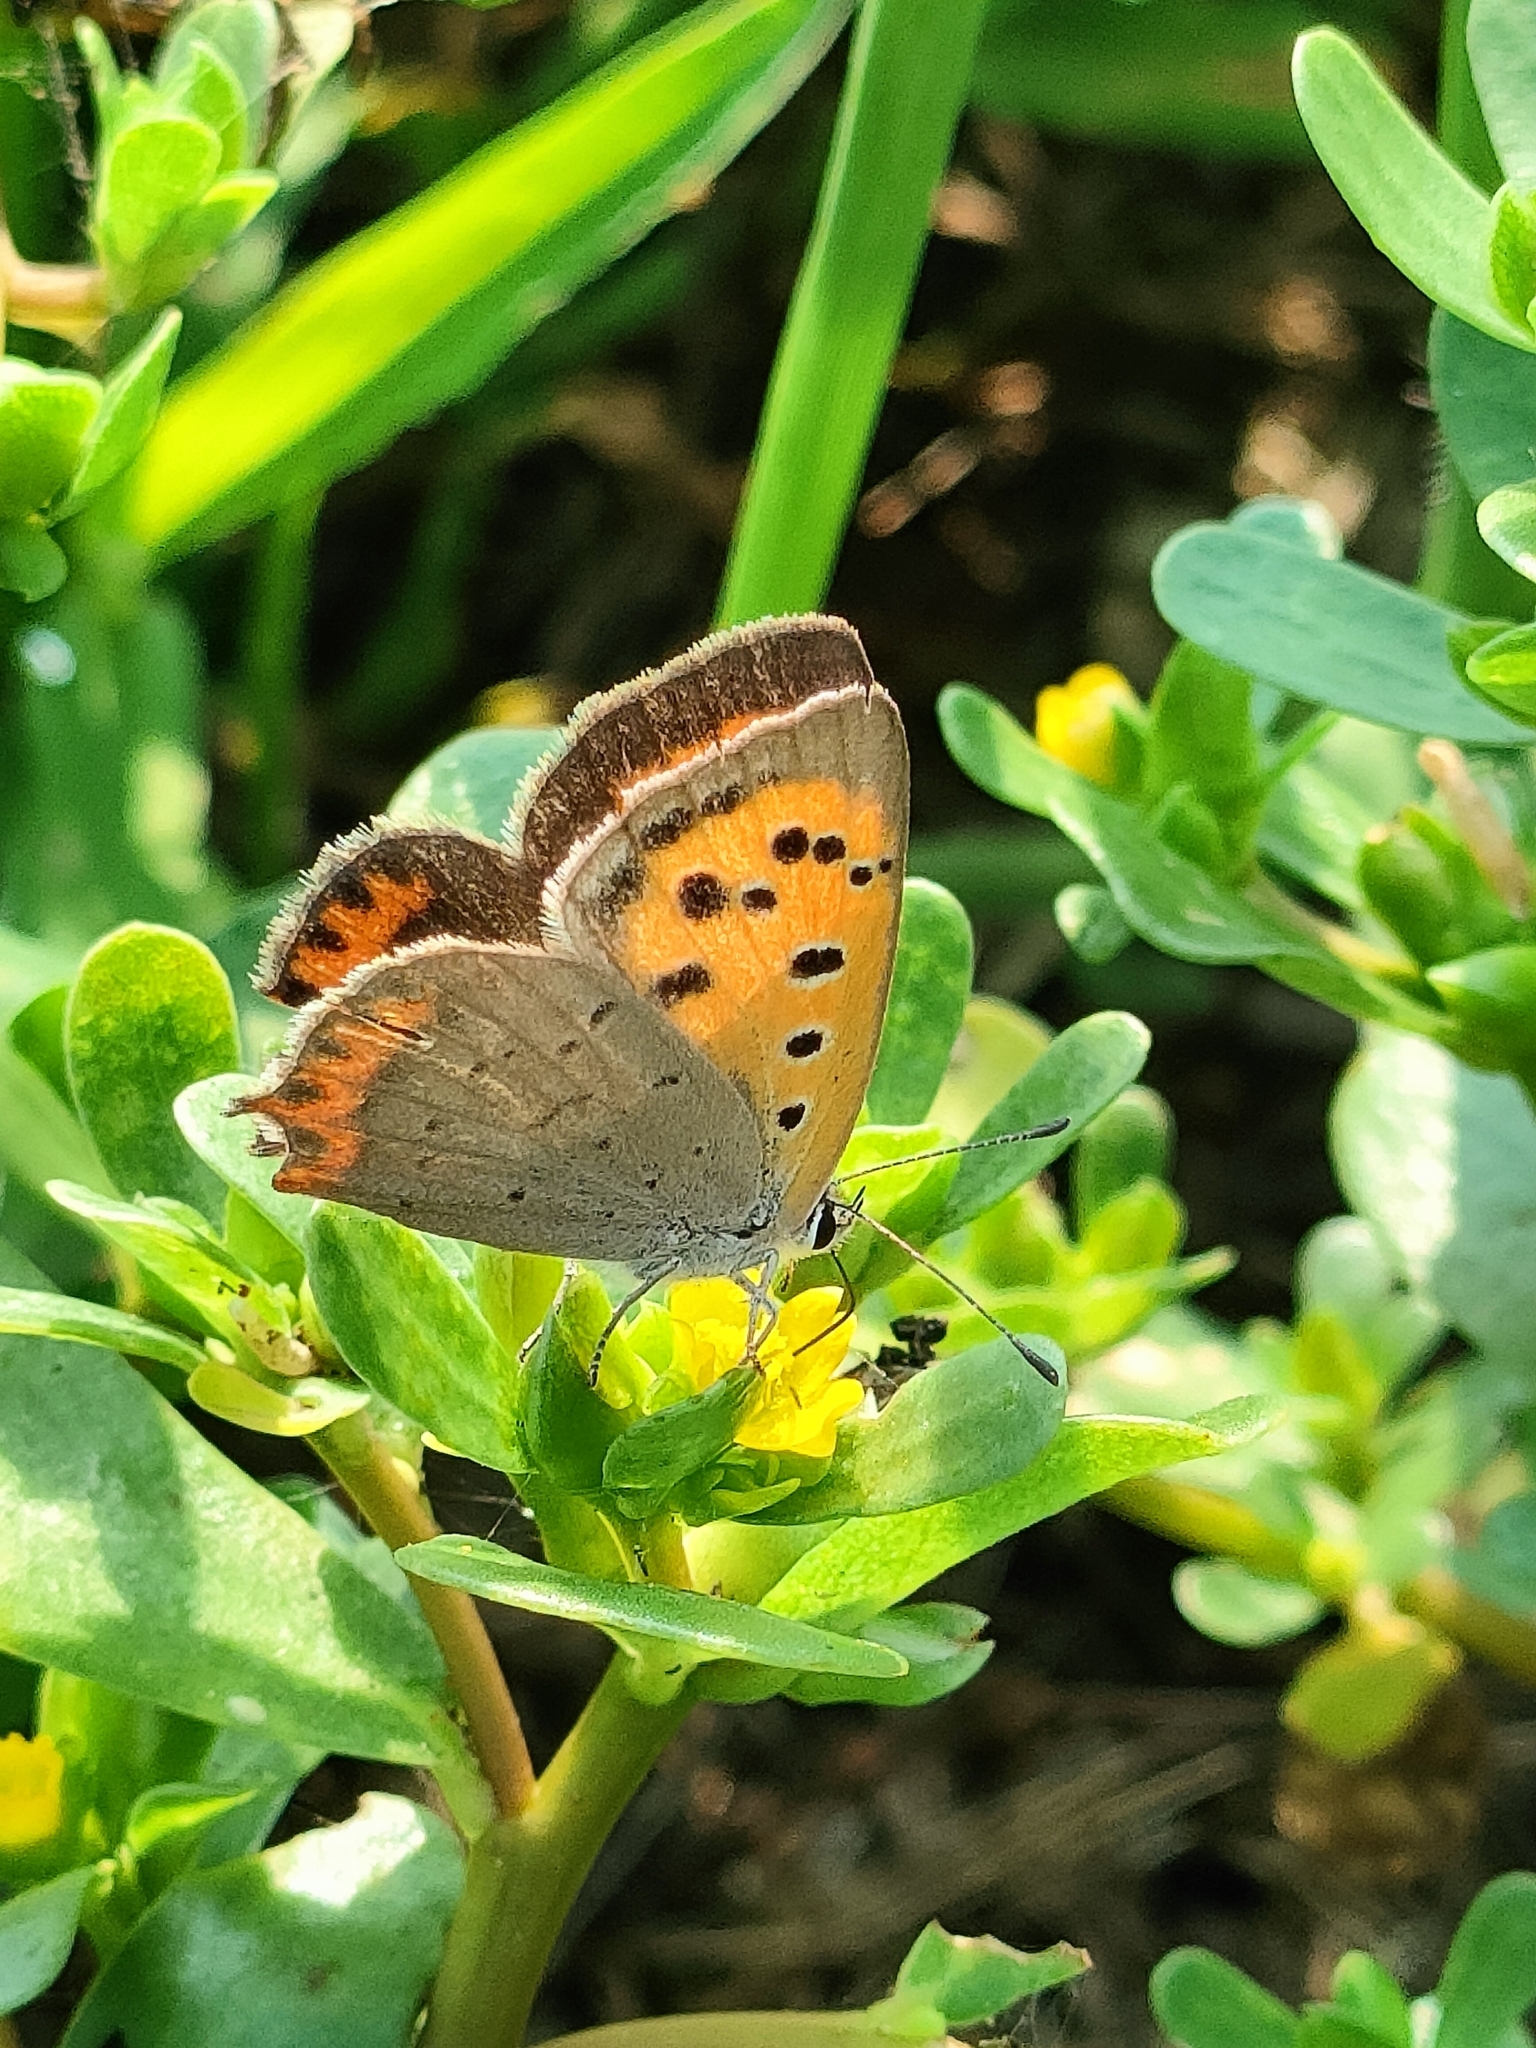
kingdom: Animalia
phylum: Arthropoda
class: Insecta
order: Lepidoptera
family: Lycaenidae
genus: Lycaena
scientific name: Lycaena phlaeas
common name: Small copper
